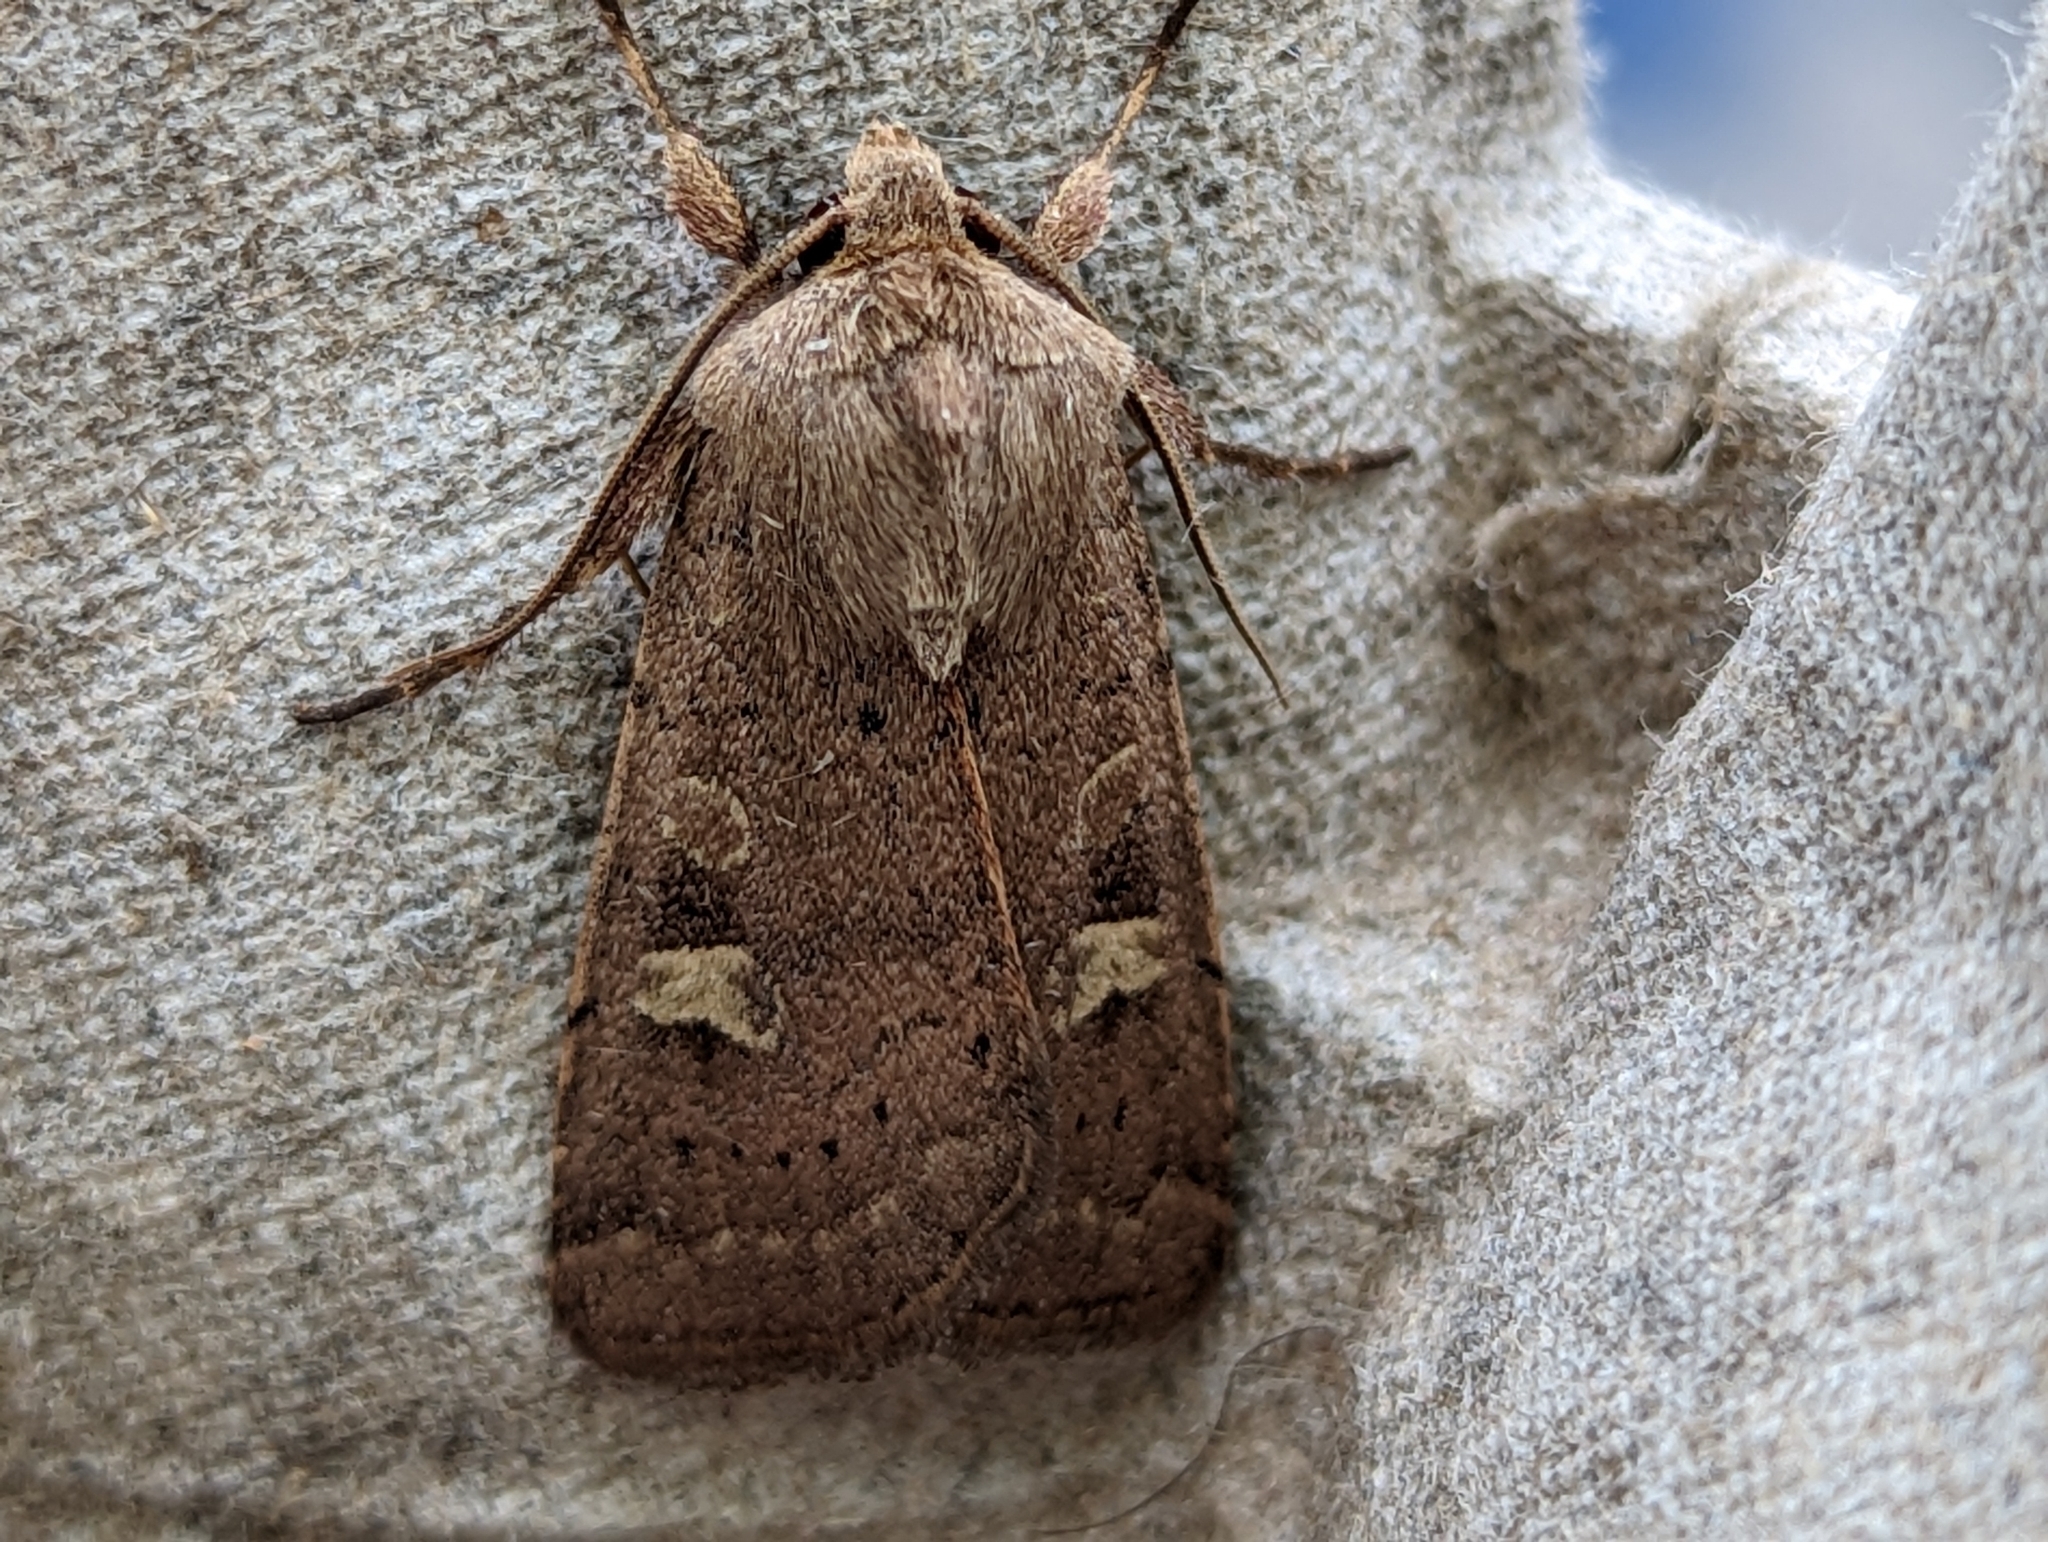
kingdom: Animalia
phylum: Arthropoda
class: Insecta
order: Lepidoptera
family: Noctuidae
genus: Xestia
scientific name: Xestia xanthographa
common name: Square-spot rustic
